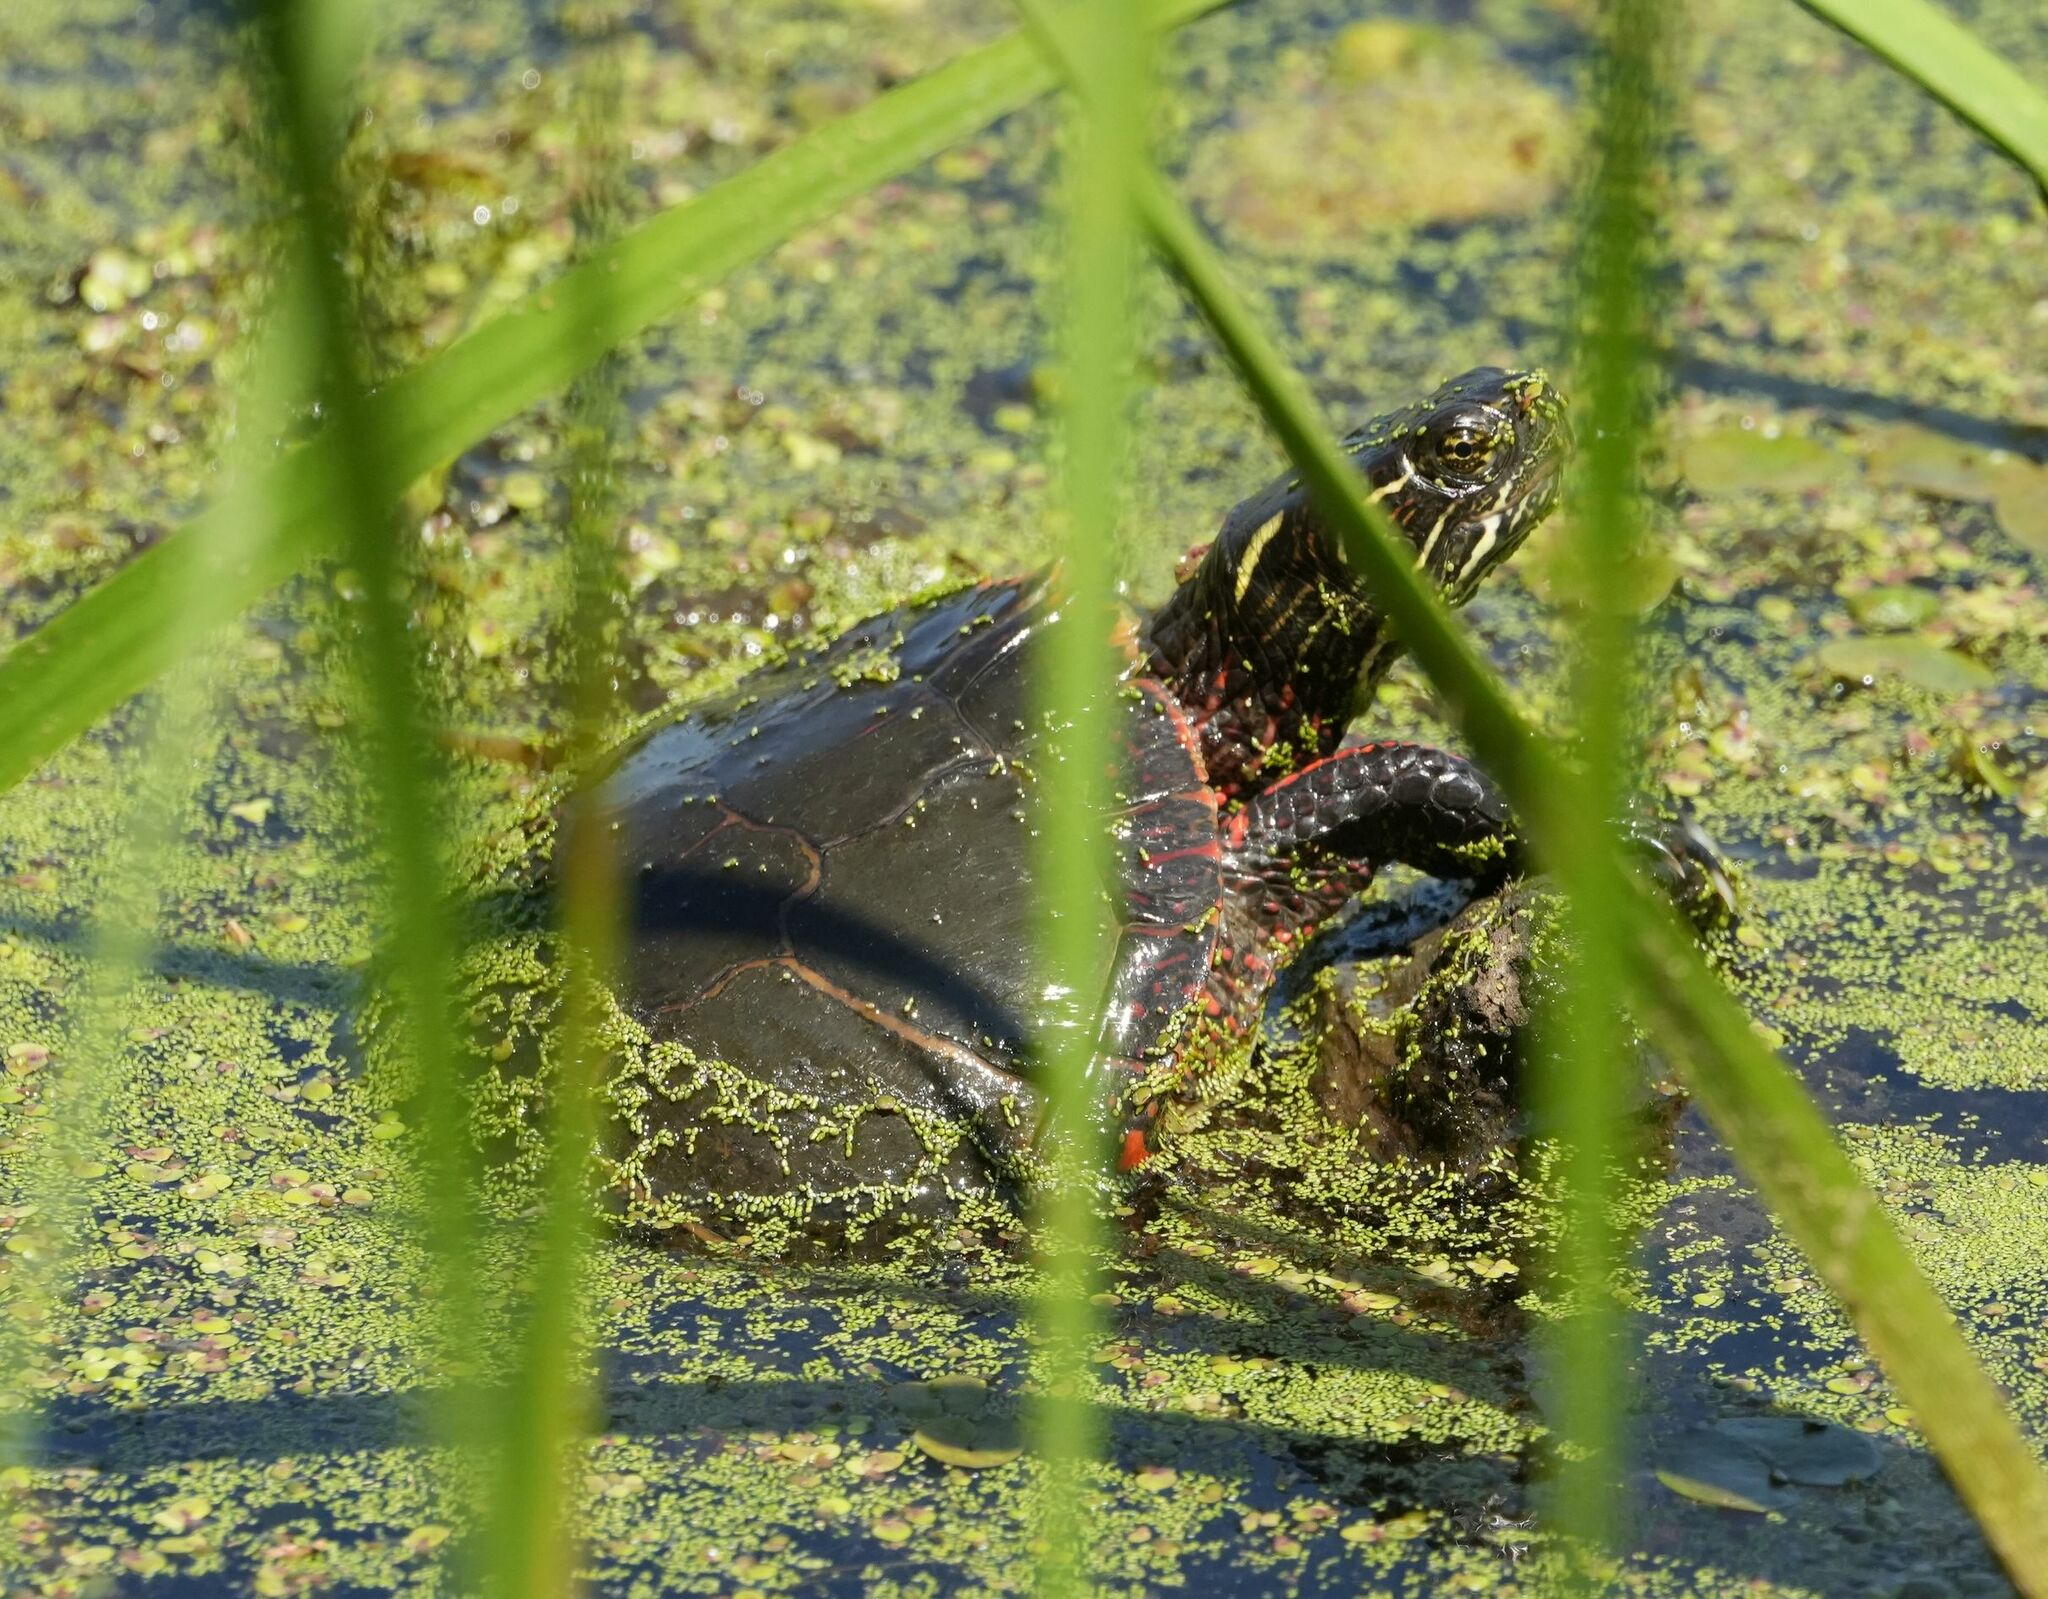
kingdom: Animalia
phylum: Chordata
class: Testudines
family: Emydidae
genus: Chrysemys
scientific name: Chrysemys picta
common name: Painted turtle
